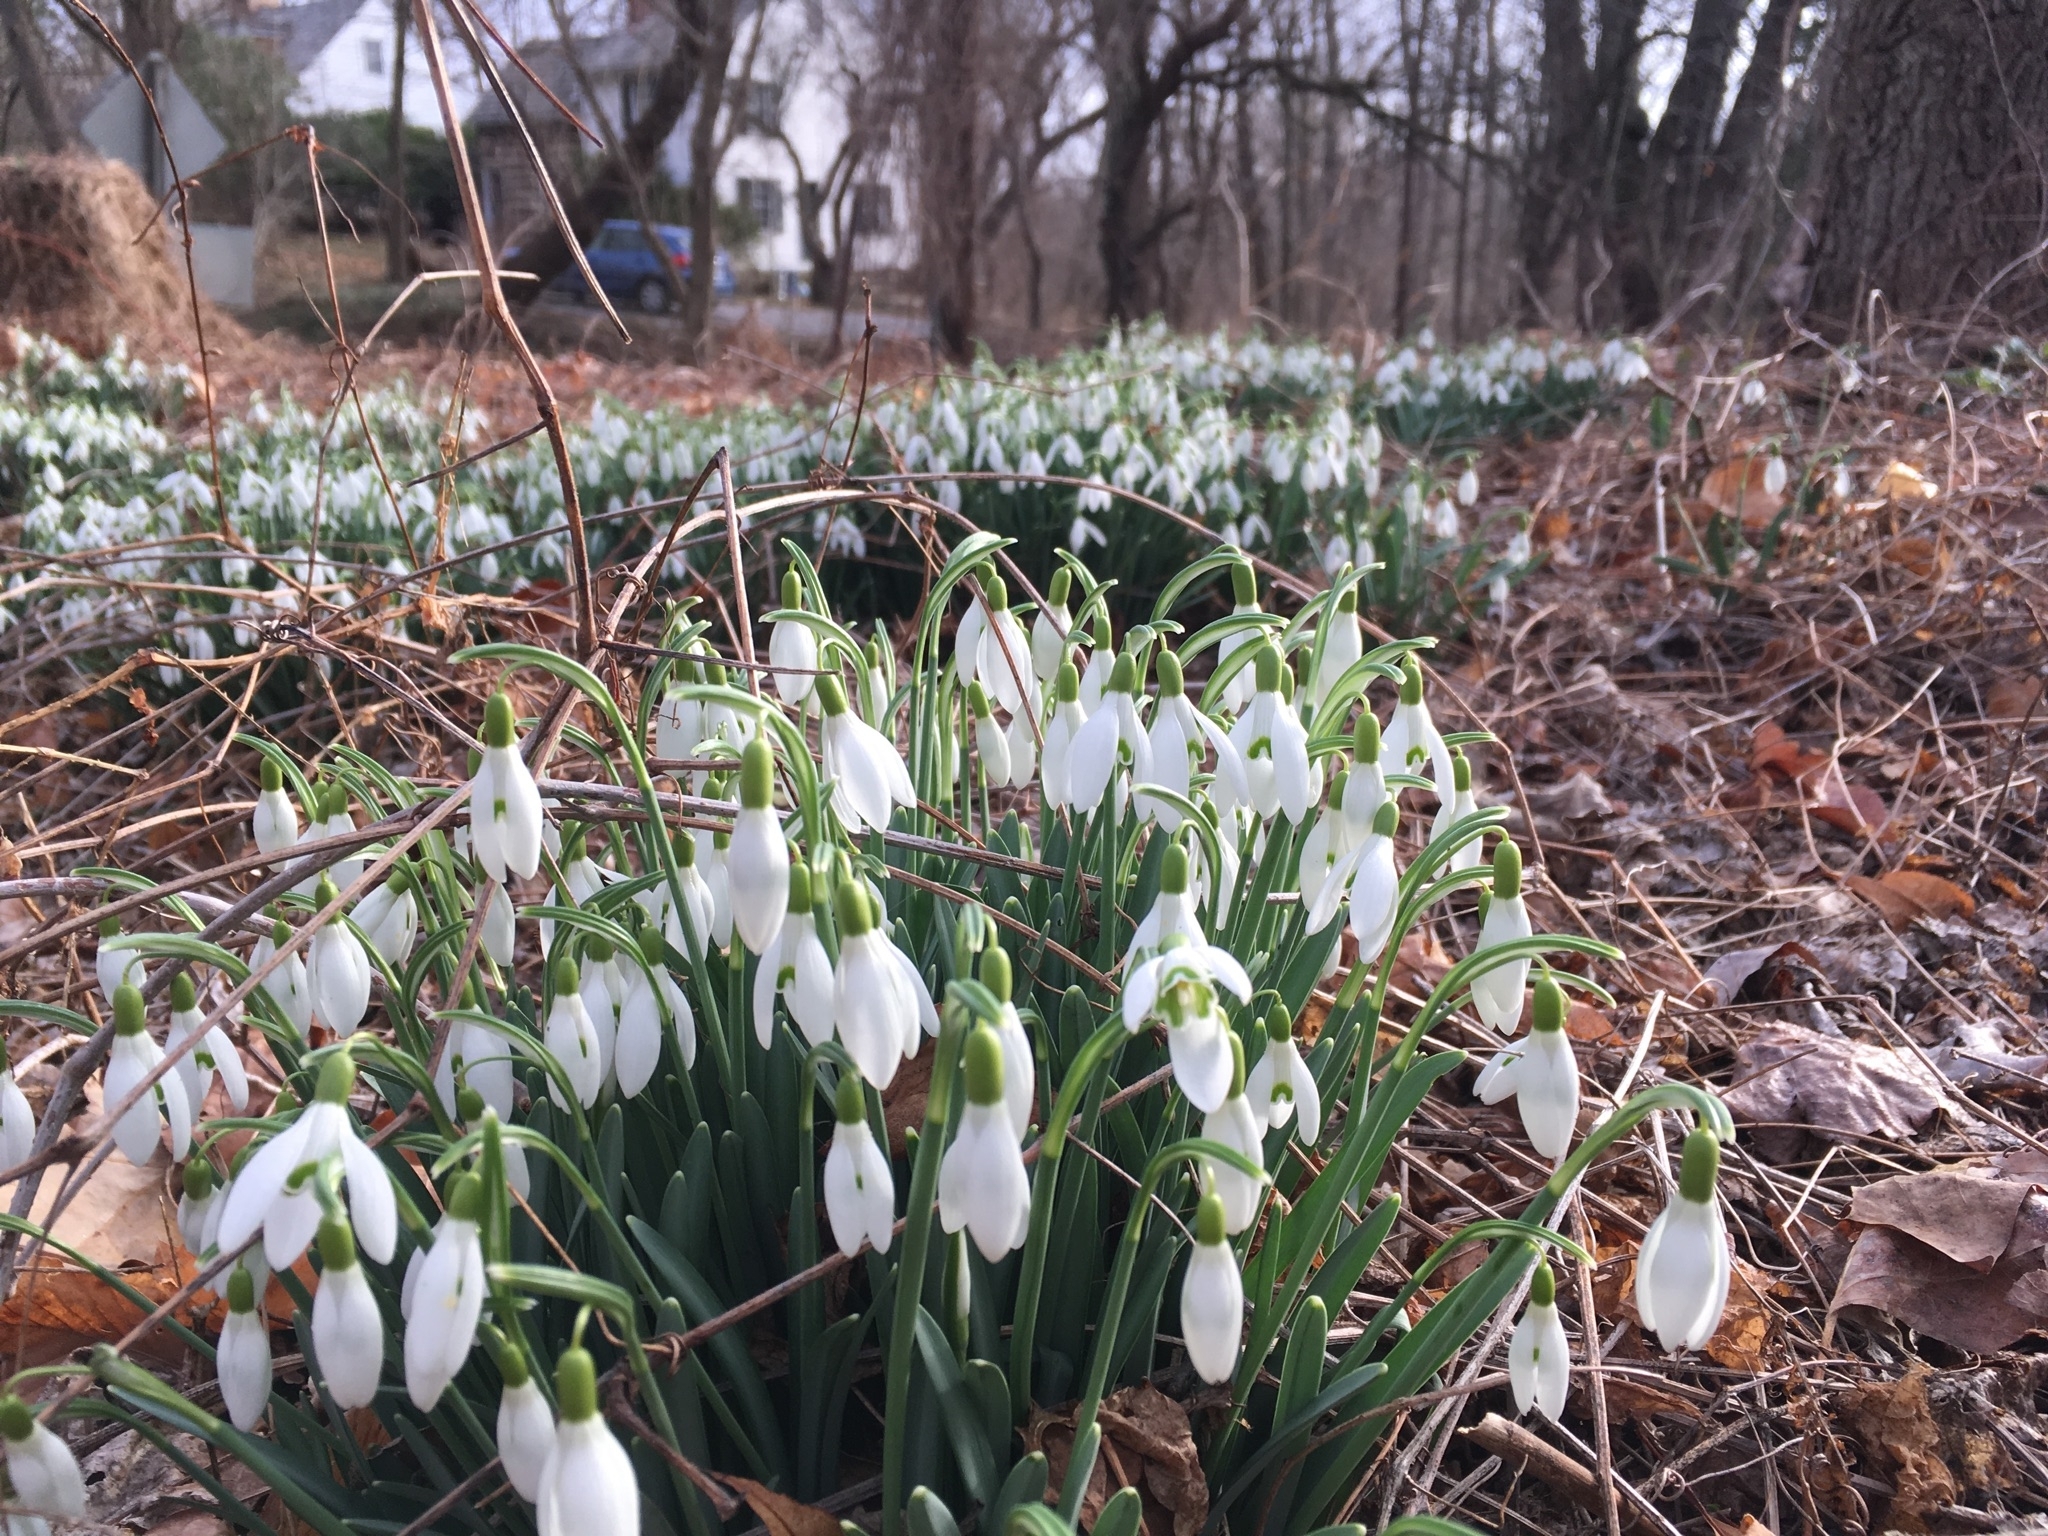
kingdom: Plantae
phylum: Tracheophyta
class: Liliopsida
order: Asparagales
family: Amaryllidaceae
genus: Galanthus
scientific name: Galanthus nivalis
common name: Snowdrop
